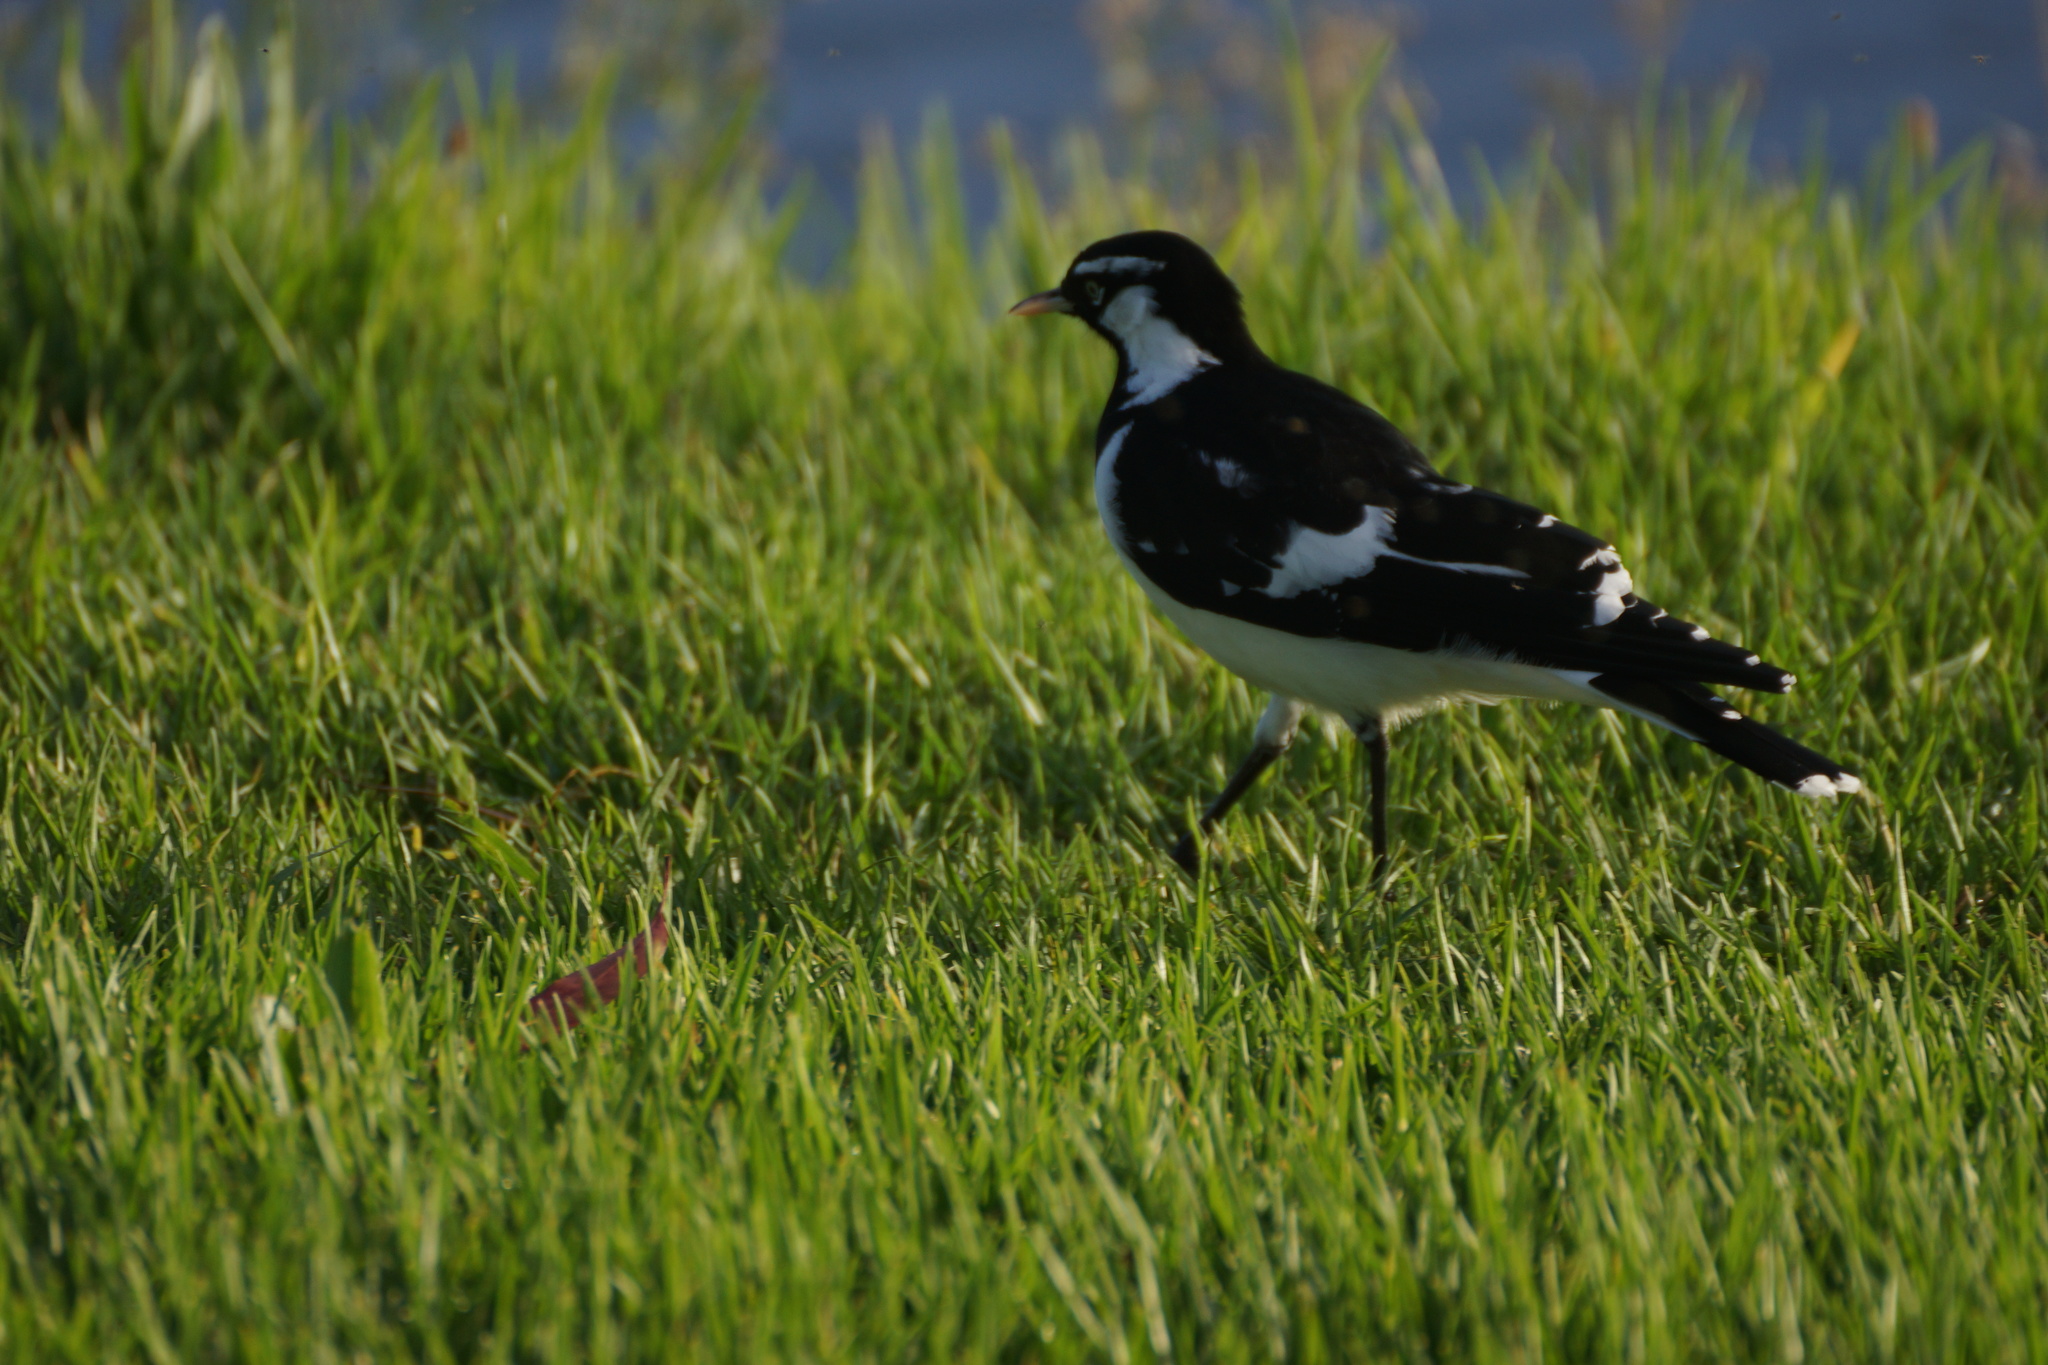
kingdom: Animalia
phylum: Chordata
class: Aves
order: Passeriformes
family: Monarchidae
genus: Grallina
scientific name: Grallina cyanoleuca
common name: Magpie-lark
